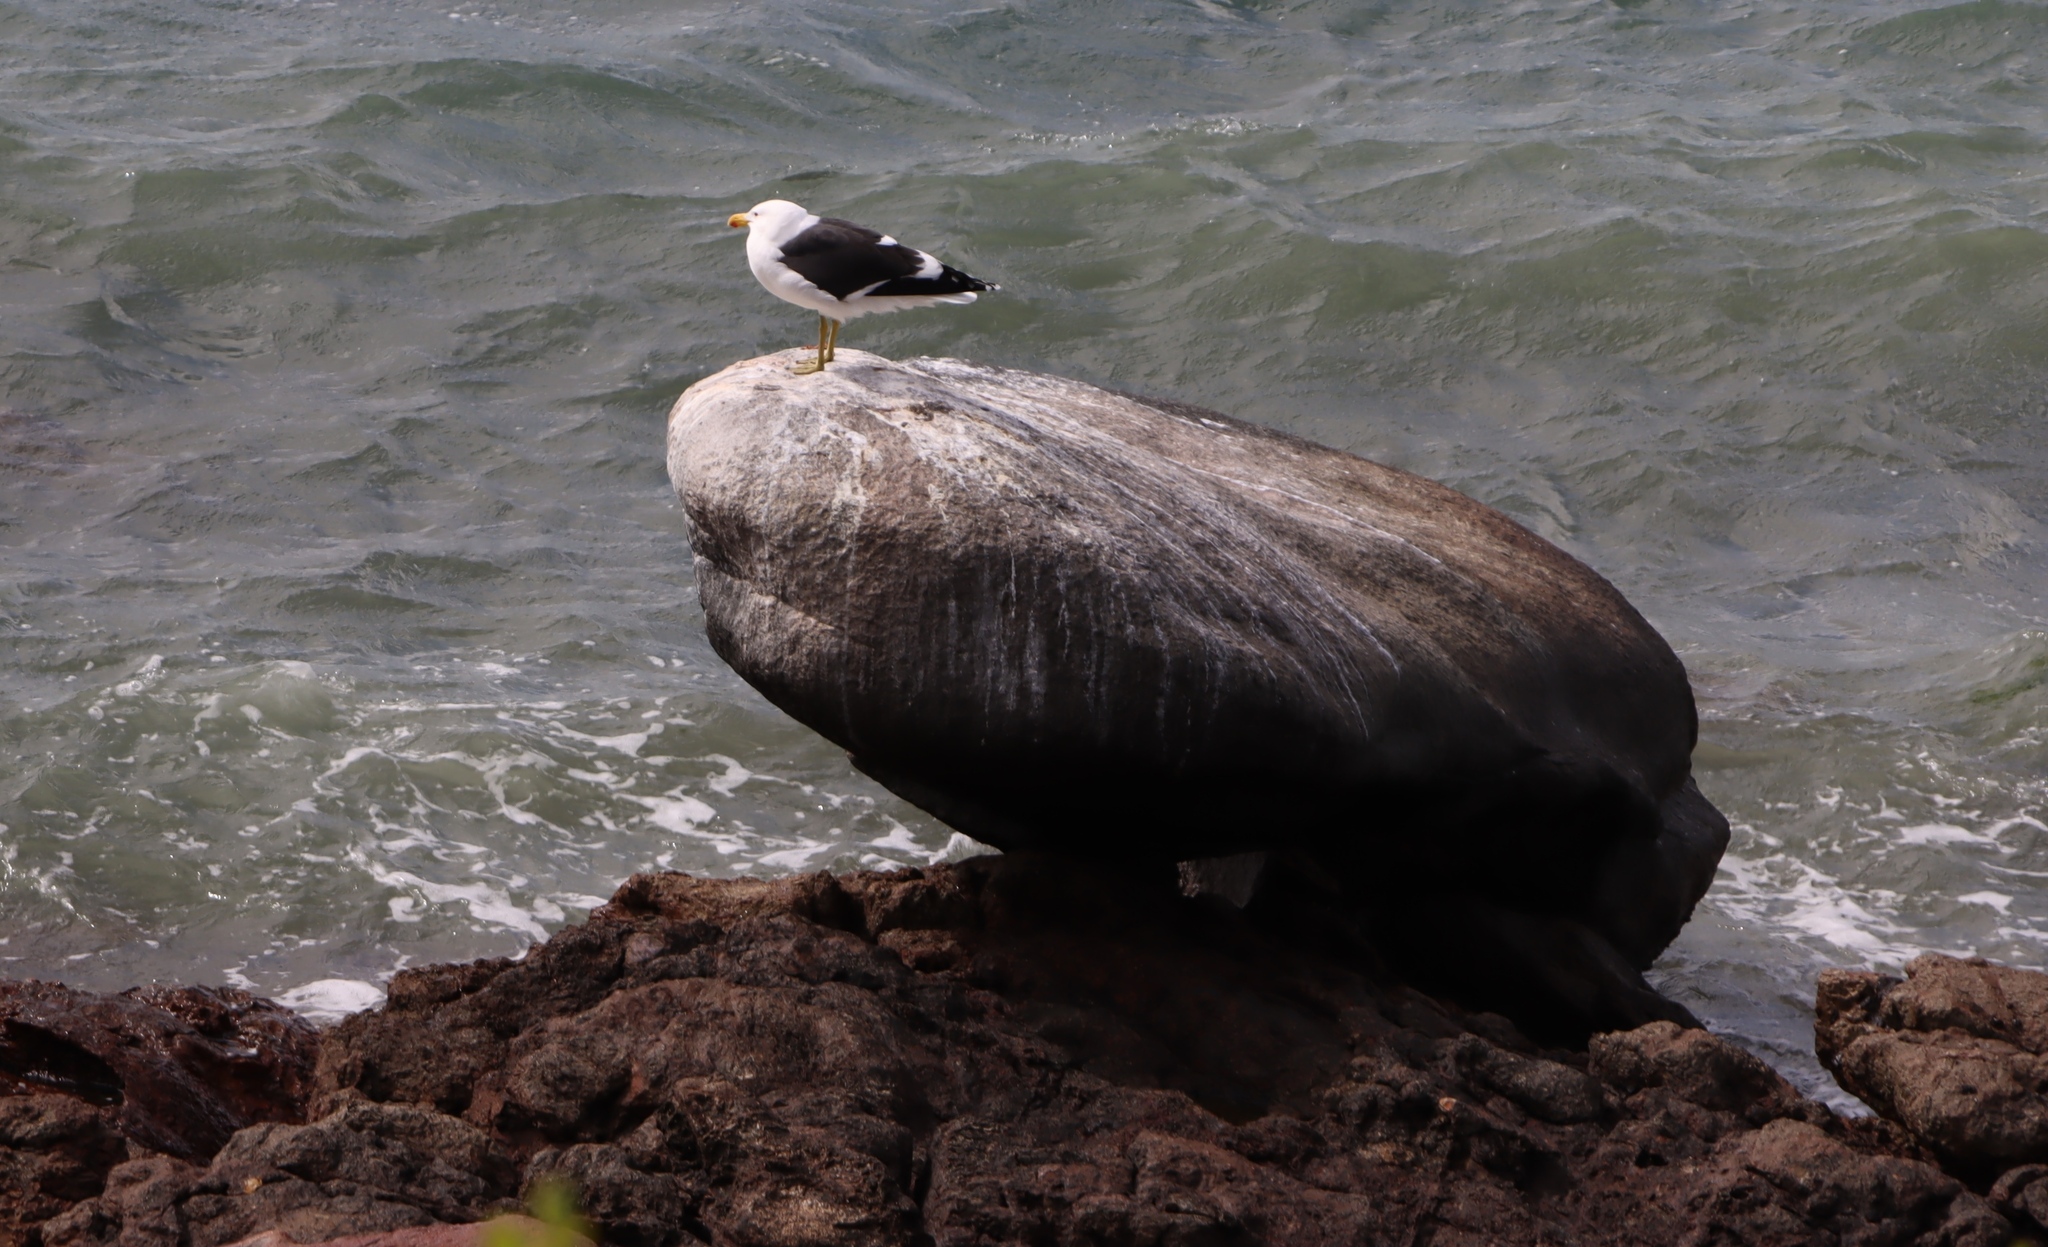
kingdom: Animalia
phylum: Chordata
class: Aves
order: Charadriiformes
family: Laridae
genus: Larus
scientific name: Larus dominicanus
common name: Kelp gull
